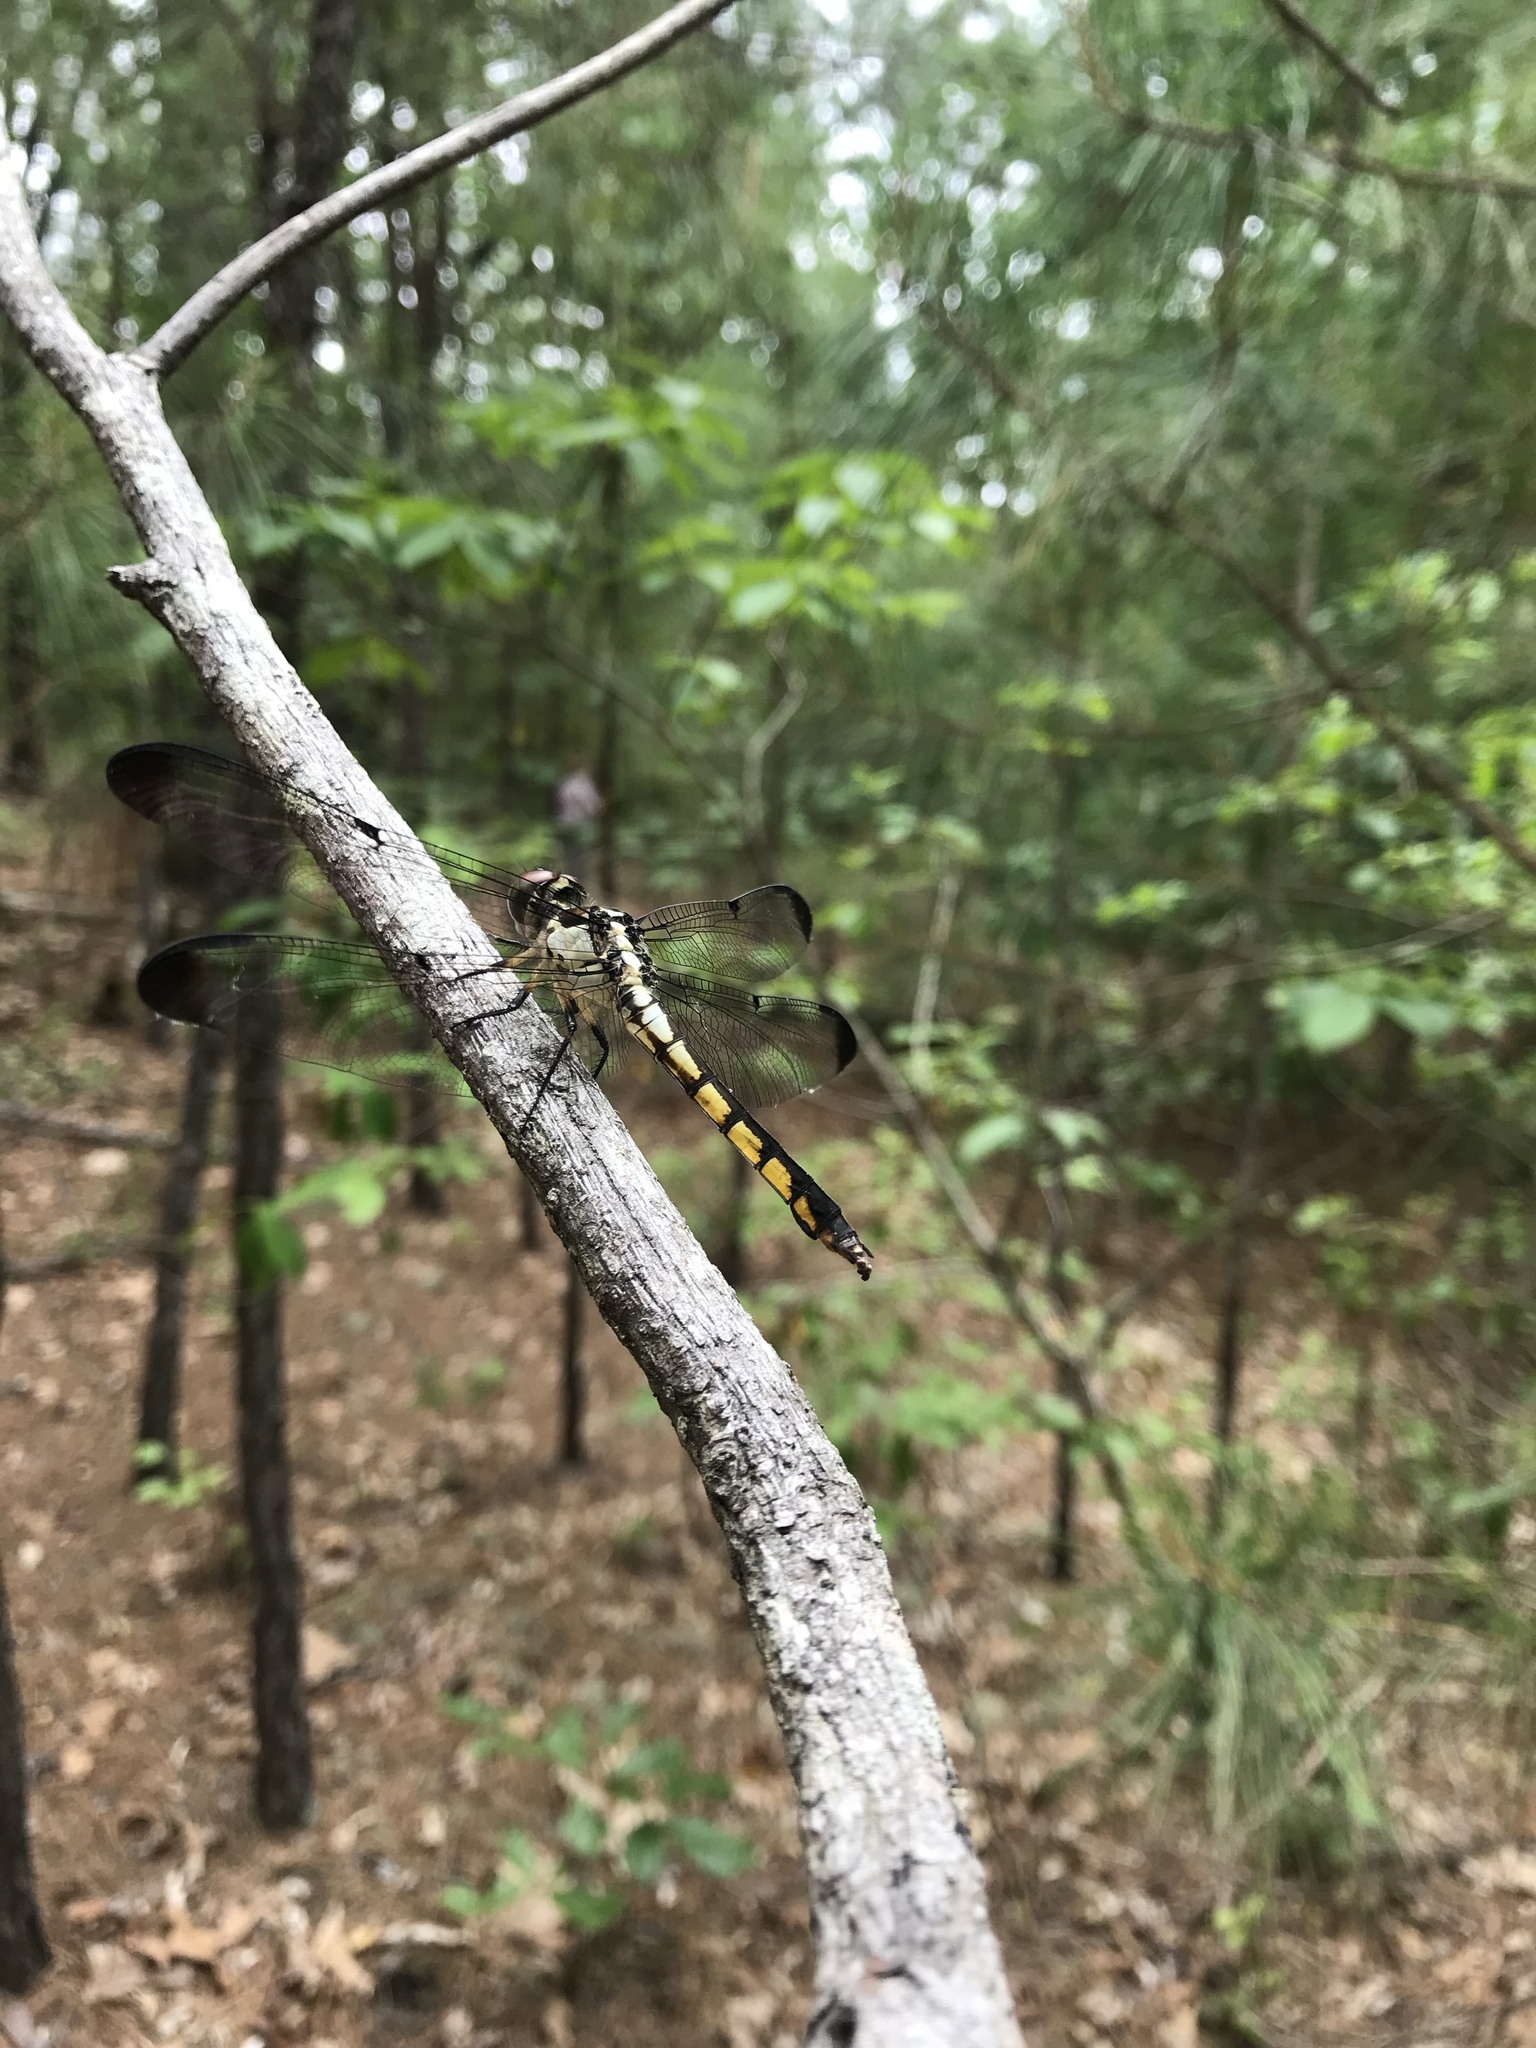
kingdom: Animalia
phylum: Arthropoda
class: Insecta
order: Odonata
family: Libellulidae
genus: Libellula
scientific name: Libellula vibrans
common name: Great blue skimmer
